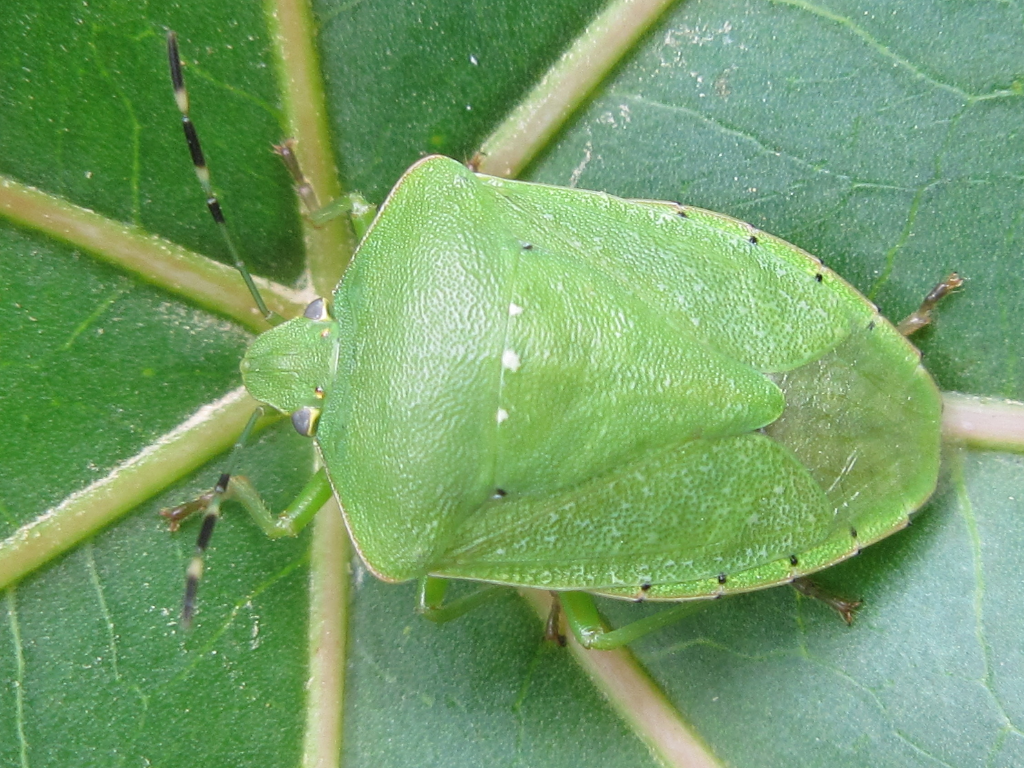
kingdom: Animalia
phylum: Arthropoda
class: Insecta
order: Hemiptera
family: Pentatomidae
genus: Nezara
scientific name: Nezara antennata
